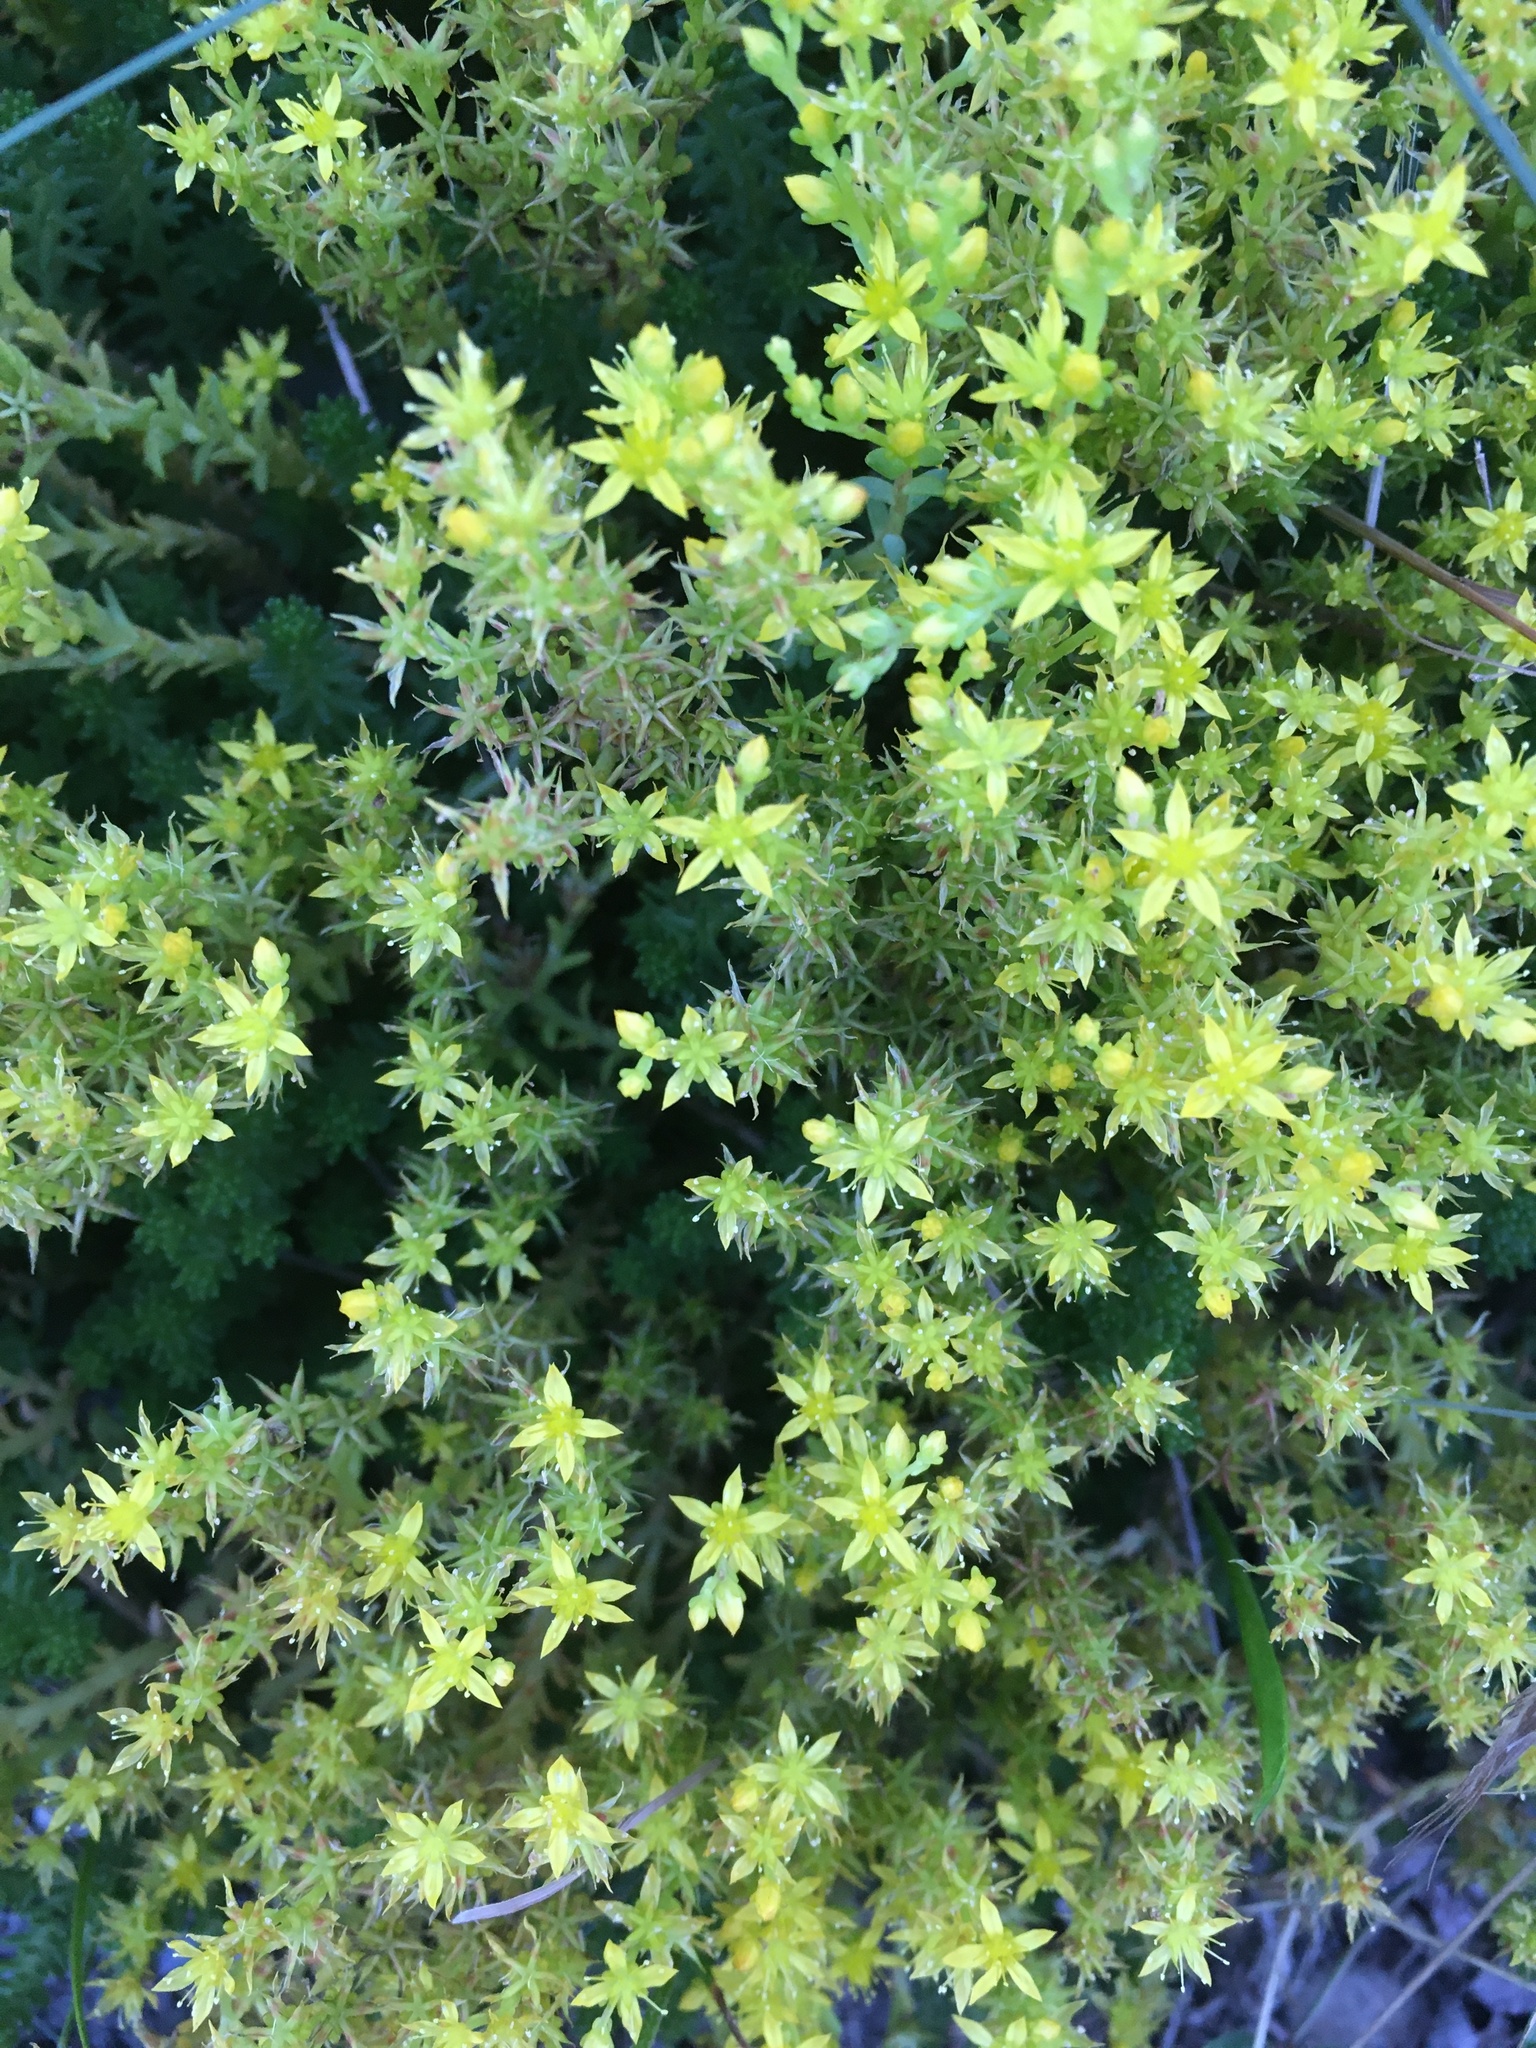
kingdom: Plantae
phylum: Tracheophyta
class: Magnoliopsida
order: Saxifragales
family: Crassulaceae
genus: Sedum
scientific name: Sedum sexangulare
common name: Tasteless stonecrop
